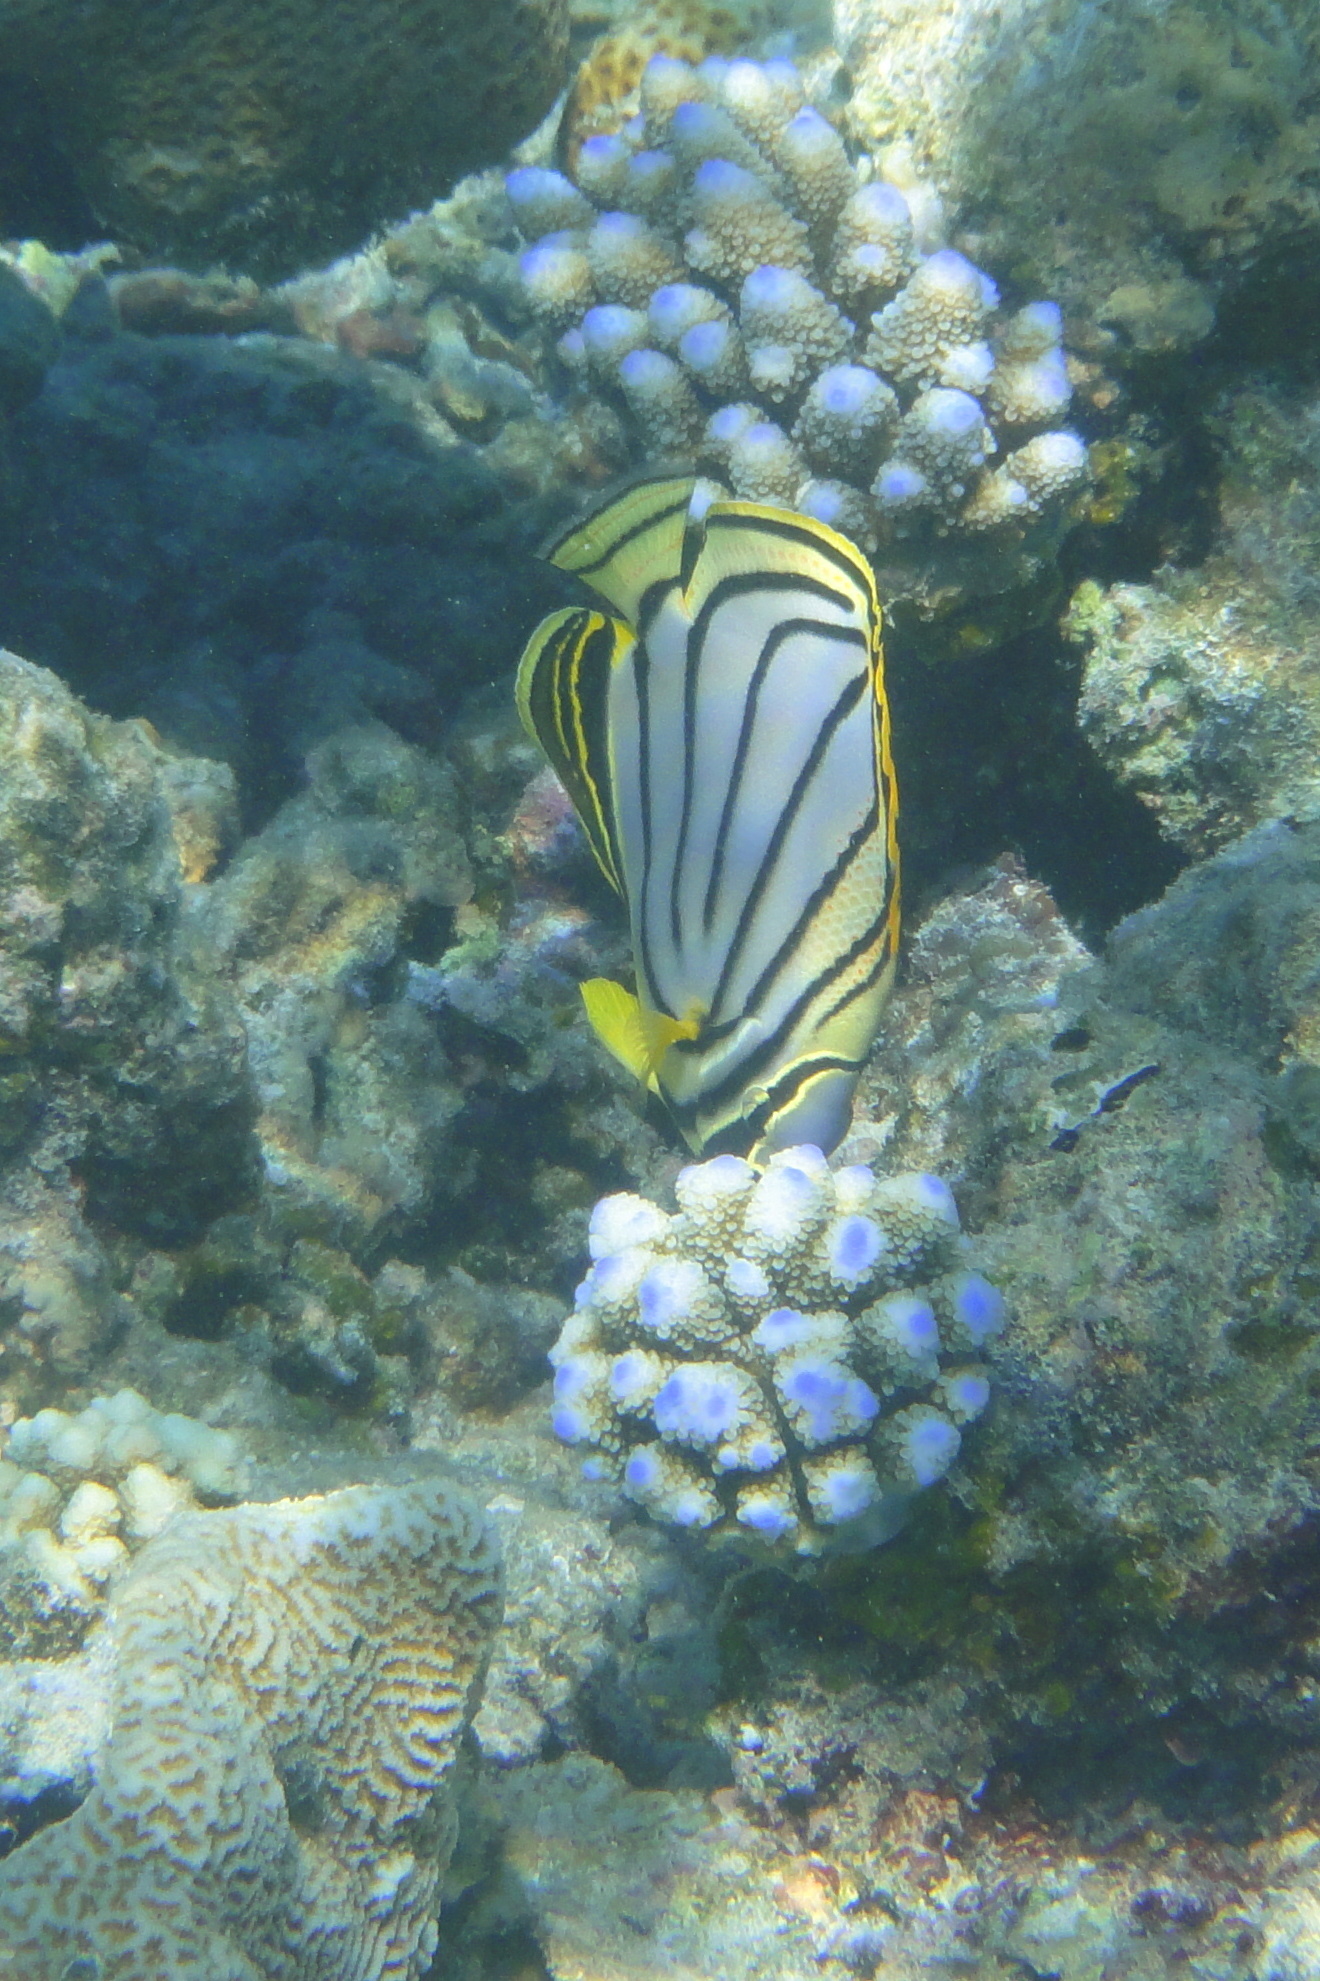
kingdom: Animalia
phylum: Chordata
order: Perciformes
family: Chaetodontidae
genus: Chaetodon
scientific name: Chaetodon meyeri
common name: Meyer's butterflyfish
